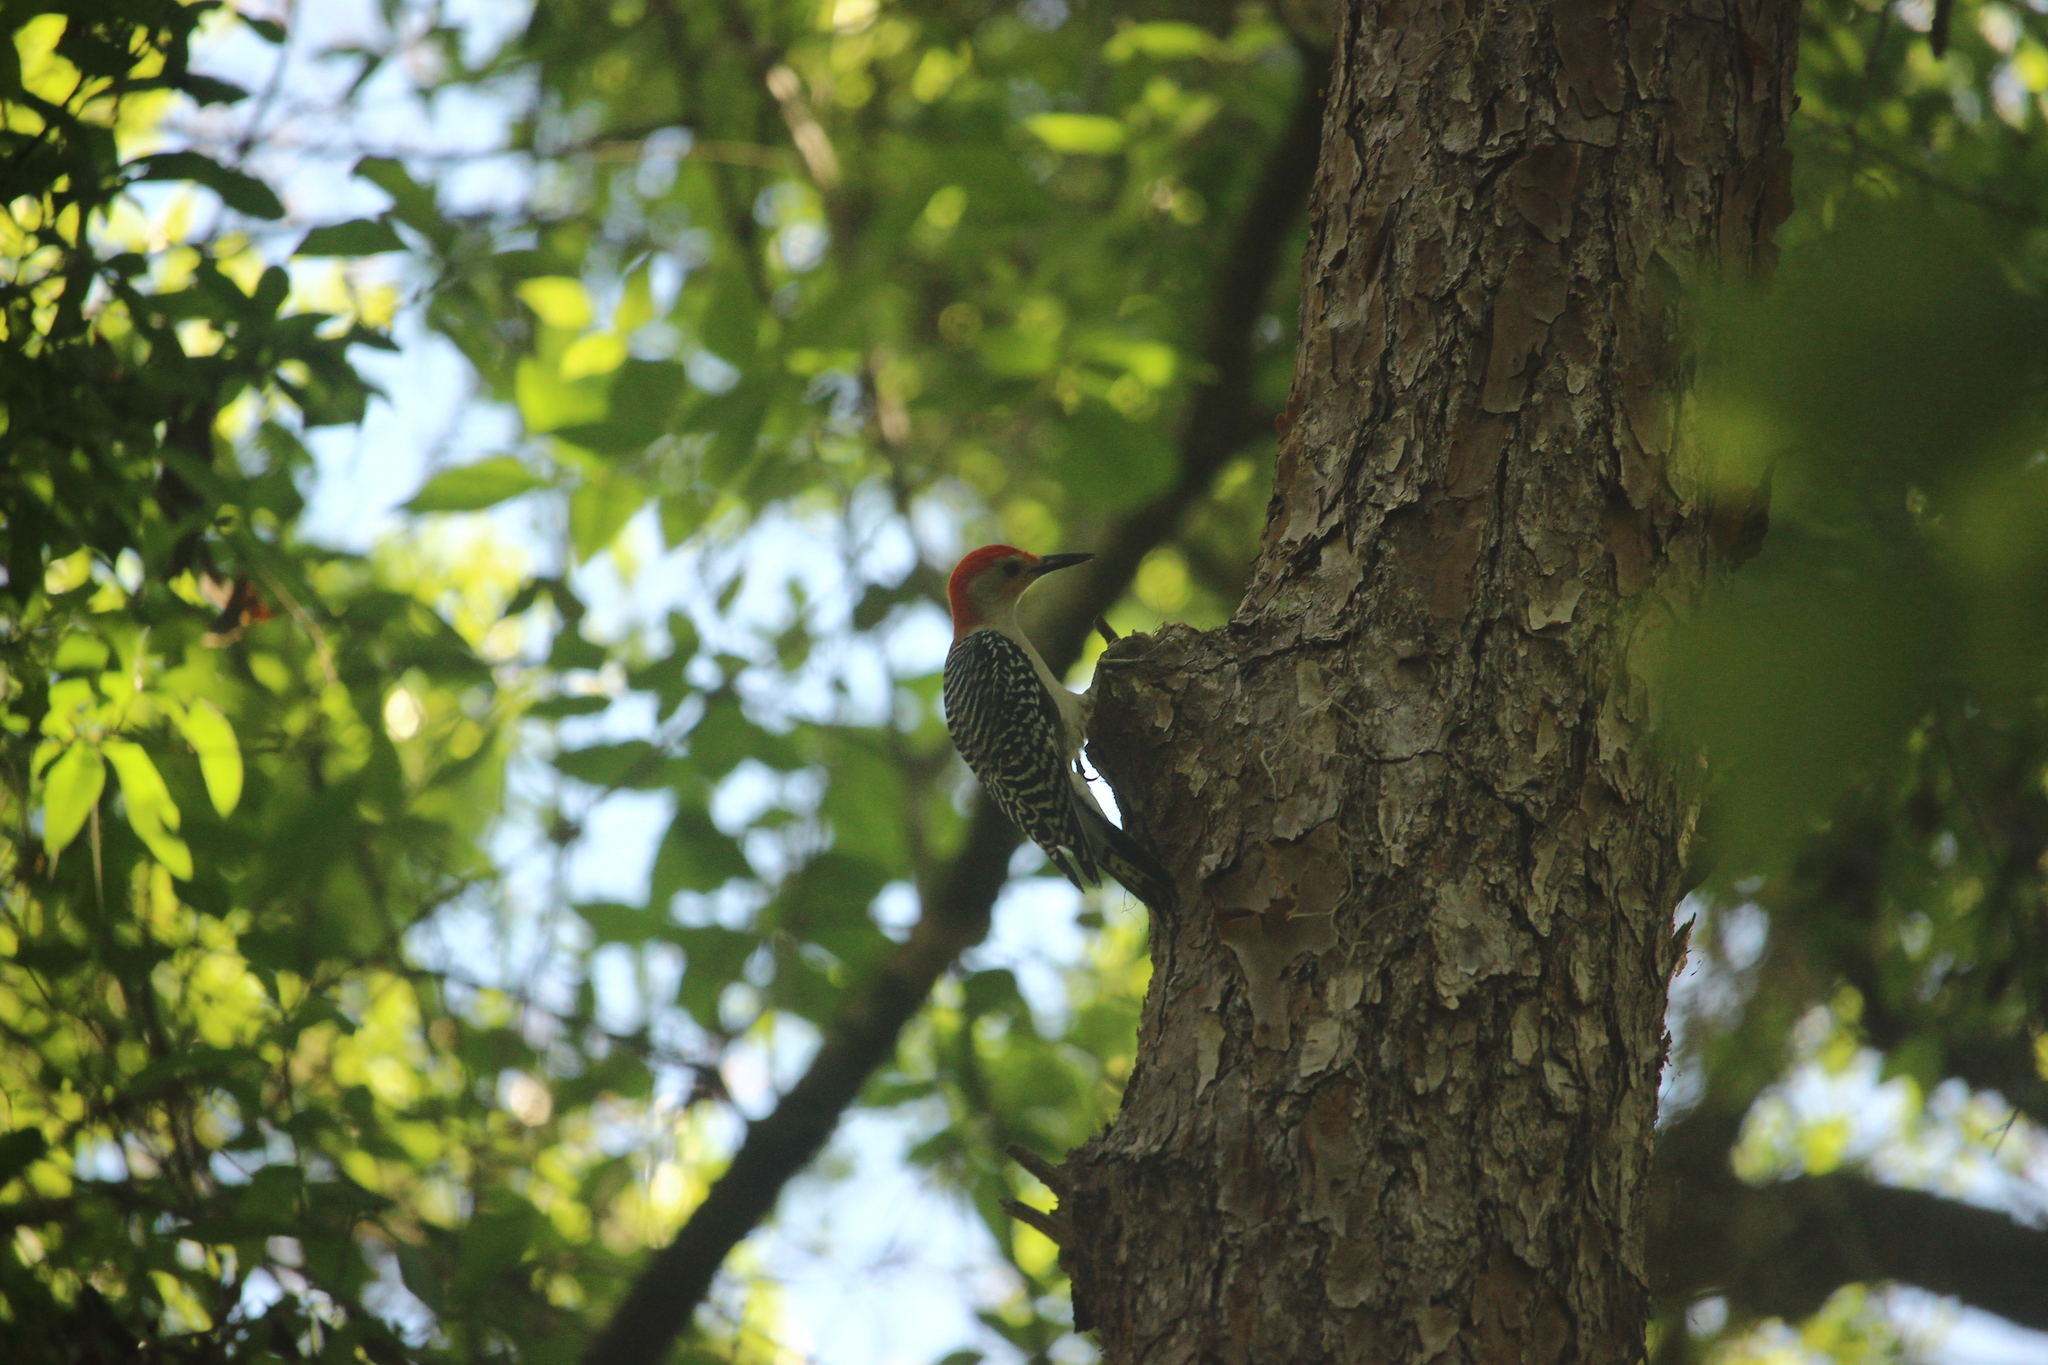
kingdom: Animalia
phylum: Chordata
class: Aves
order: Piciformes
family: Picidae
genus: Melanerpes
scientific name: Melanerpes carolinus
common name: Red-bellied woodpecker
